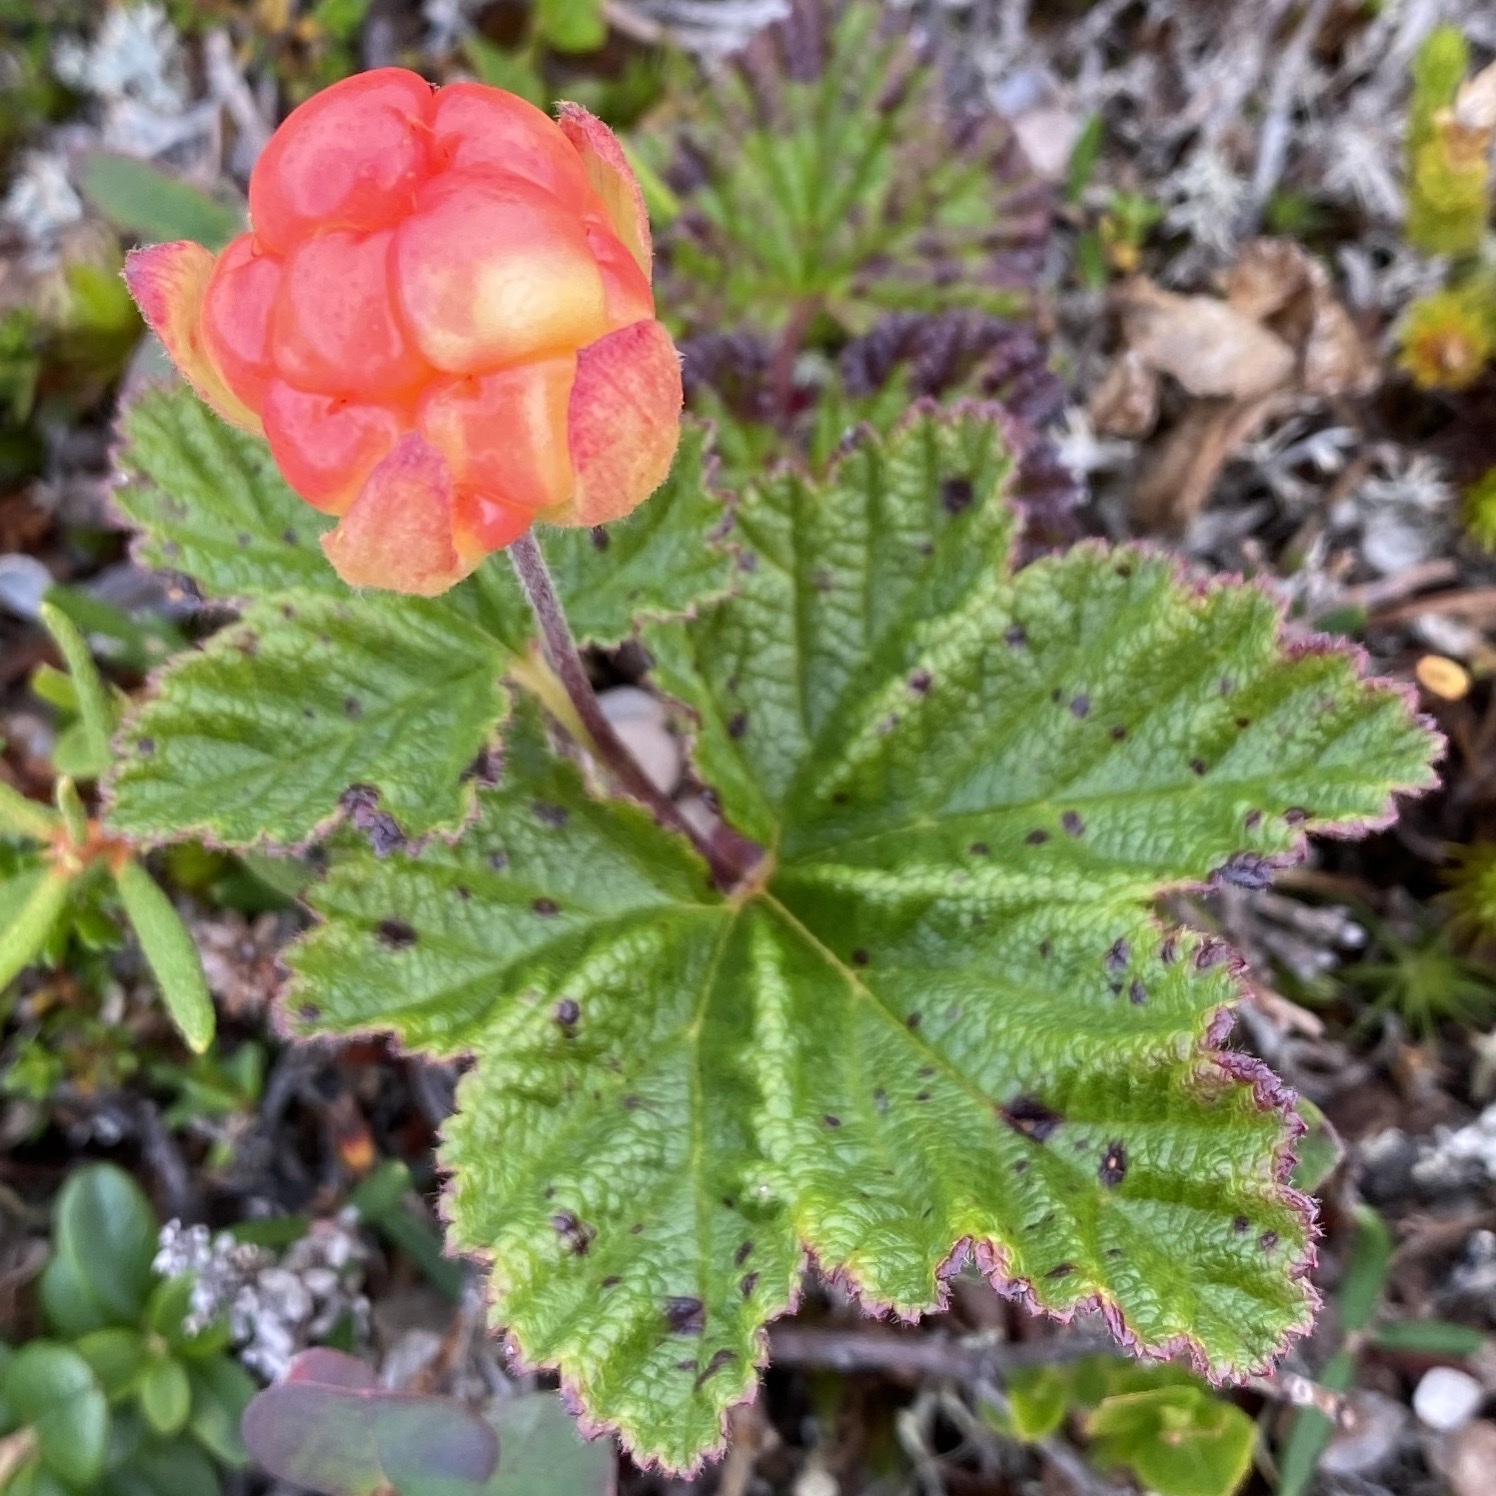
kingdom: Plantae
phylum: Tracheophyta
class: Magnoliopsida
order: Rosales
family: Rosaceae
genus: Rubus
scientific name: Rubus chamaemorus
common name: Cloudberry
